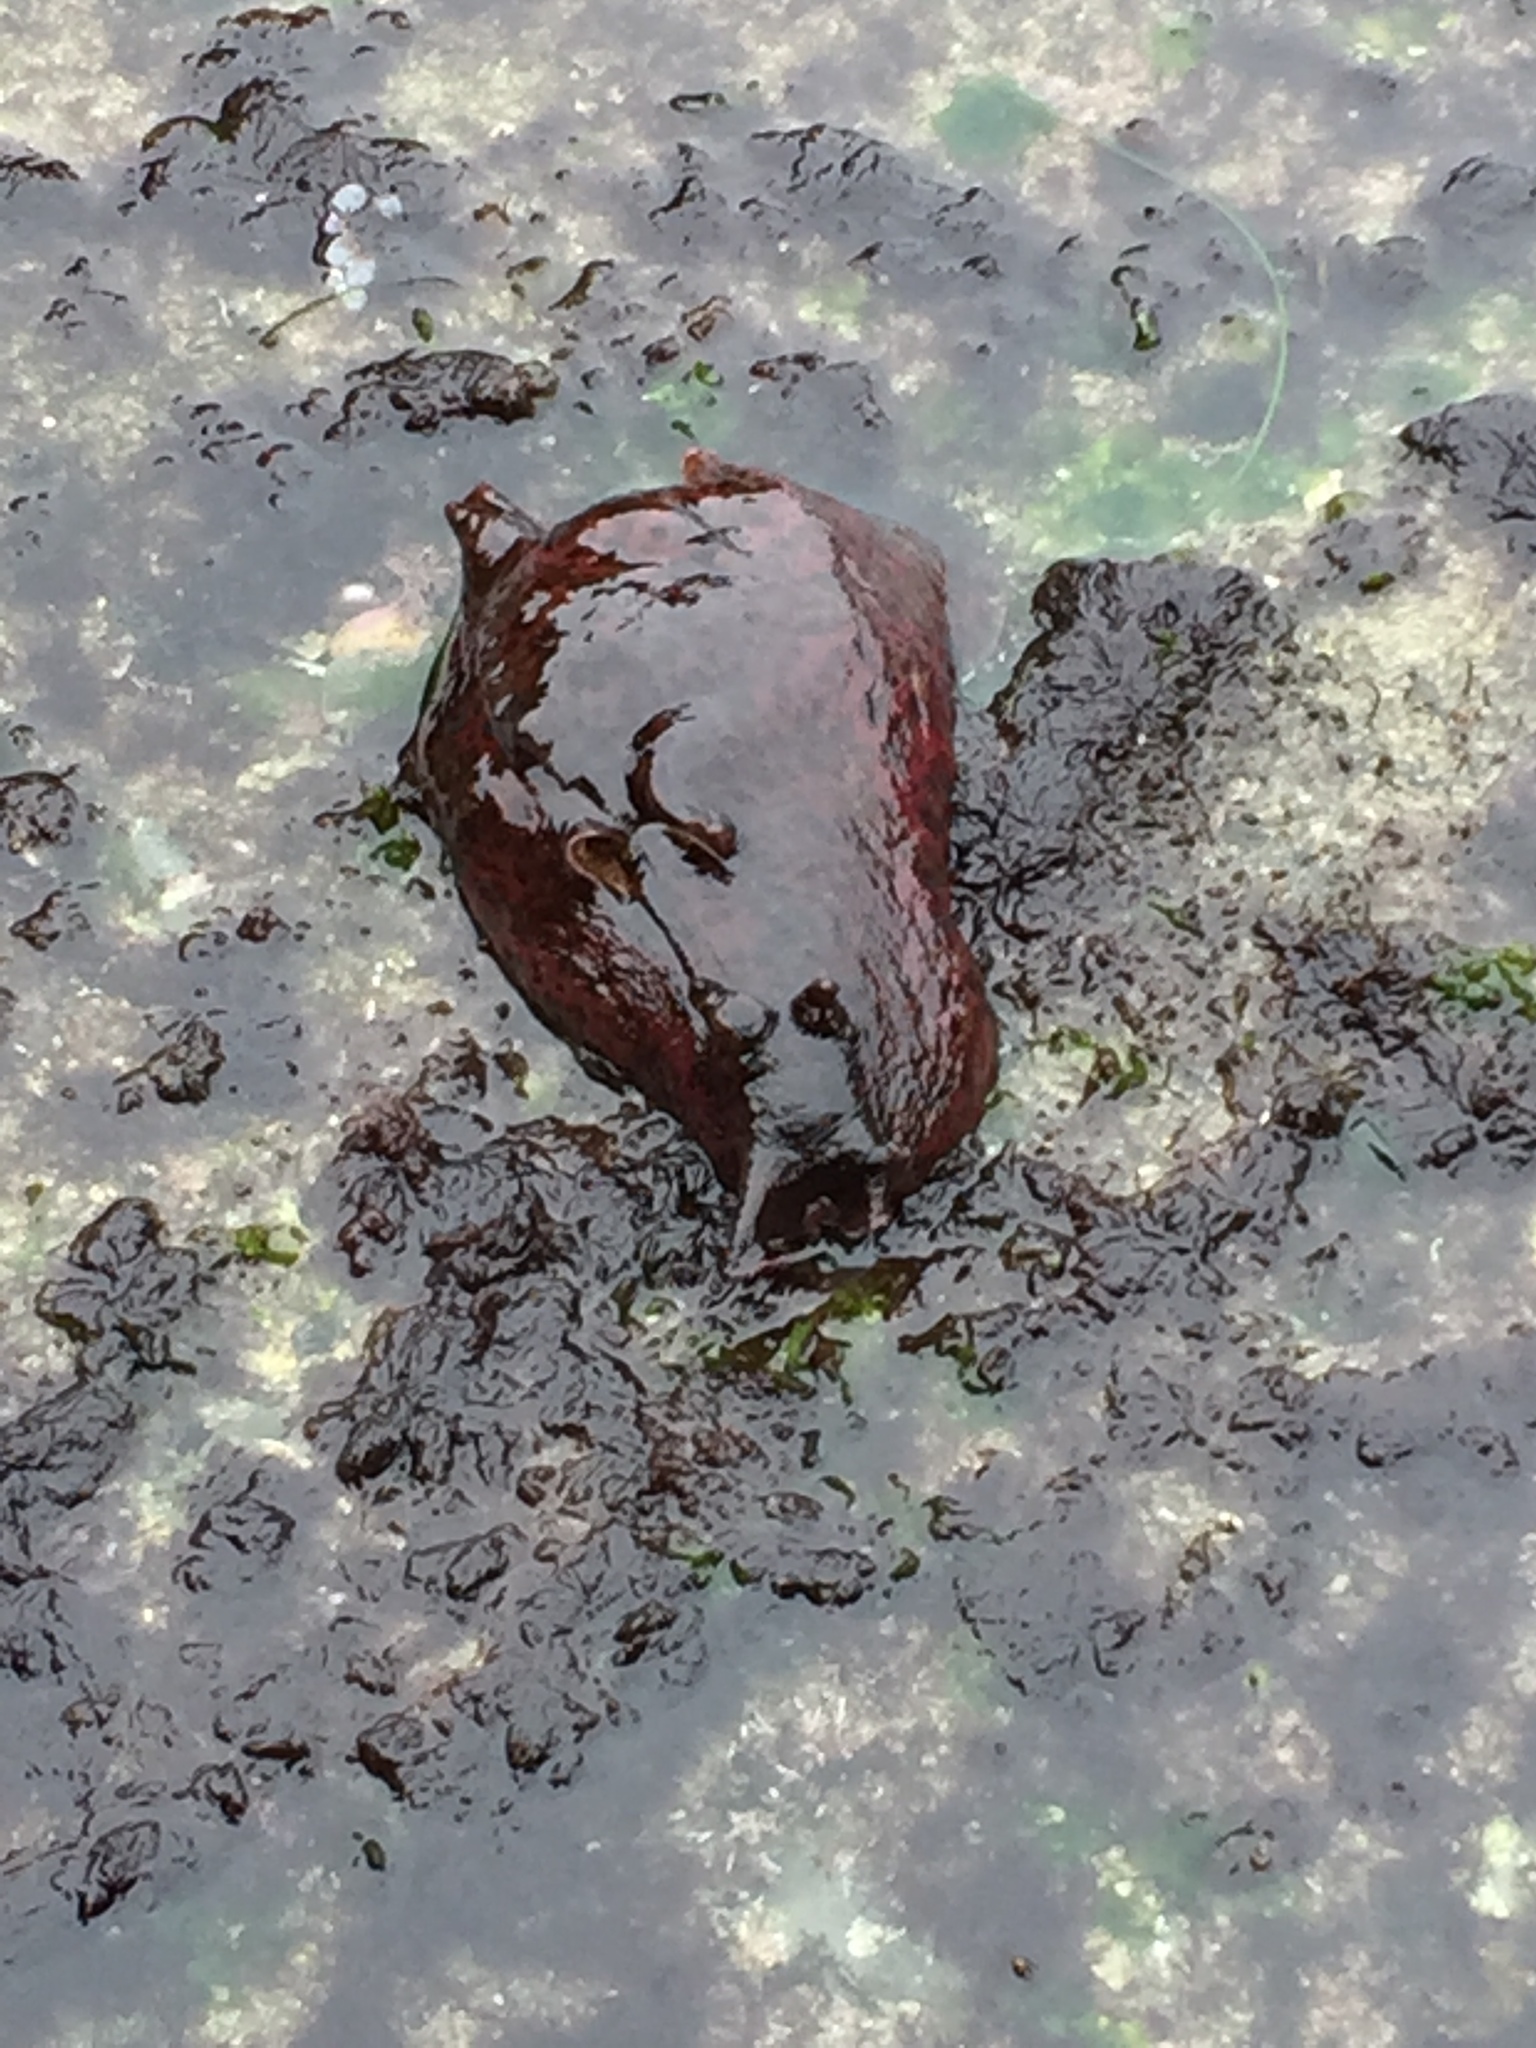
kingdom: Animalia
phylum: Mollusca
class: Gastropoda
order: Aplysiida
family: Aplysiidae
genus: Aplysia
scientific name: Aplysia californica
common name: California seahare
